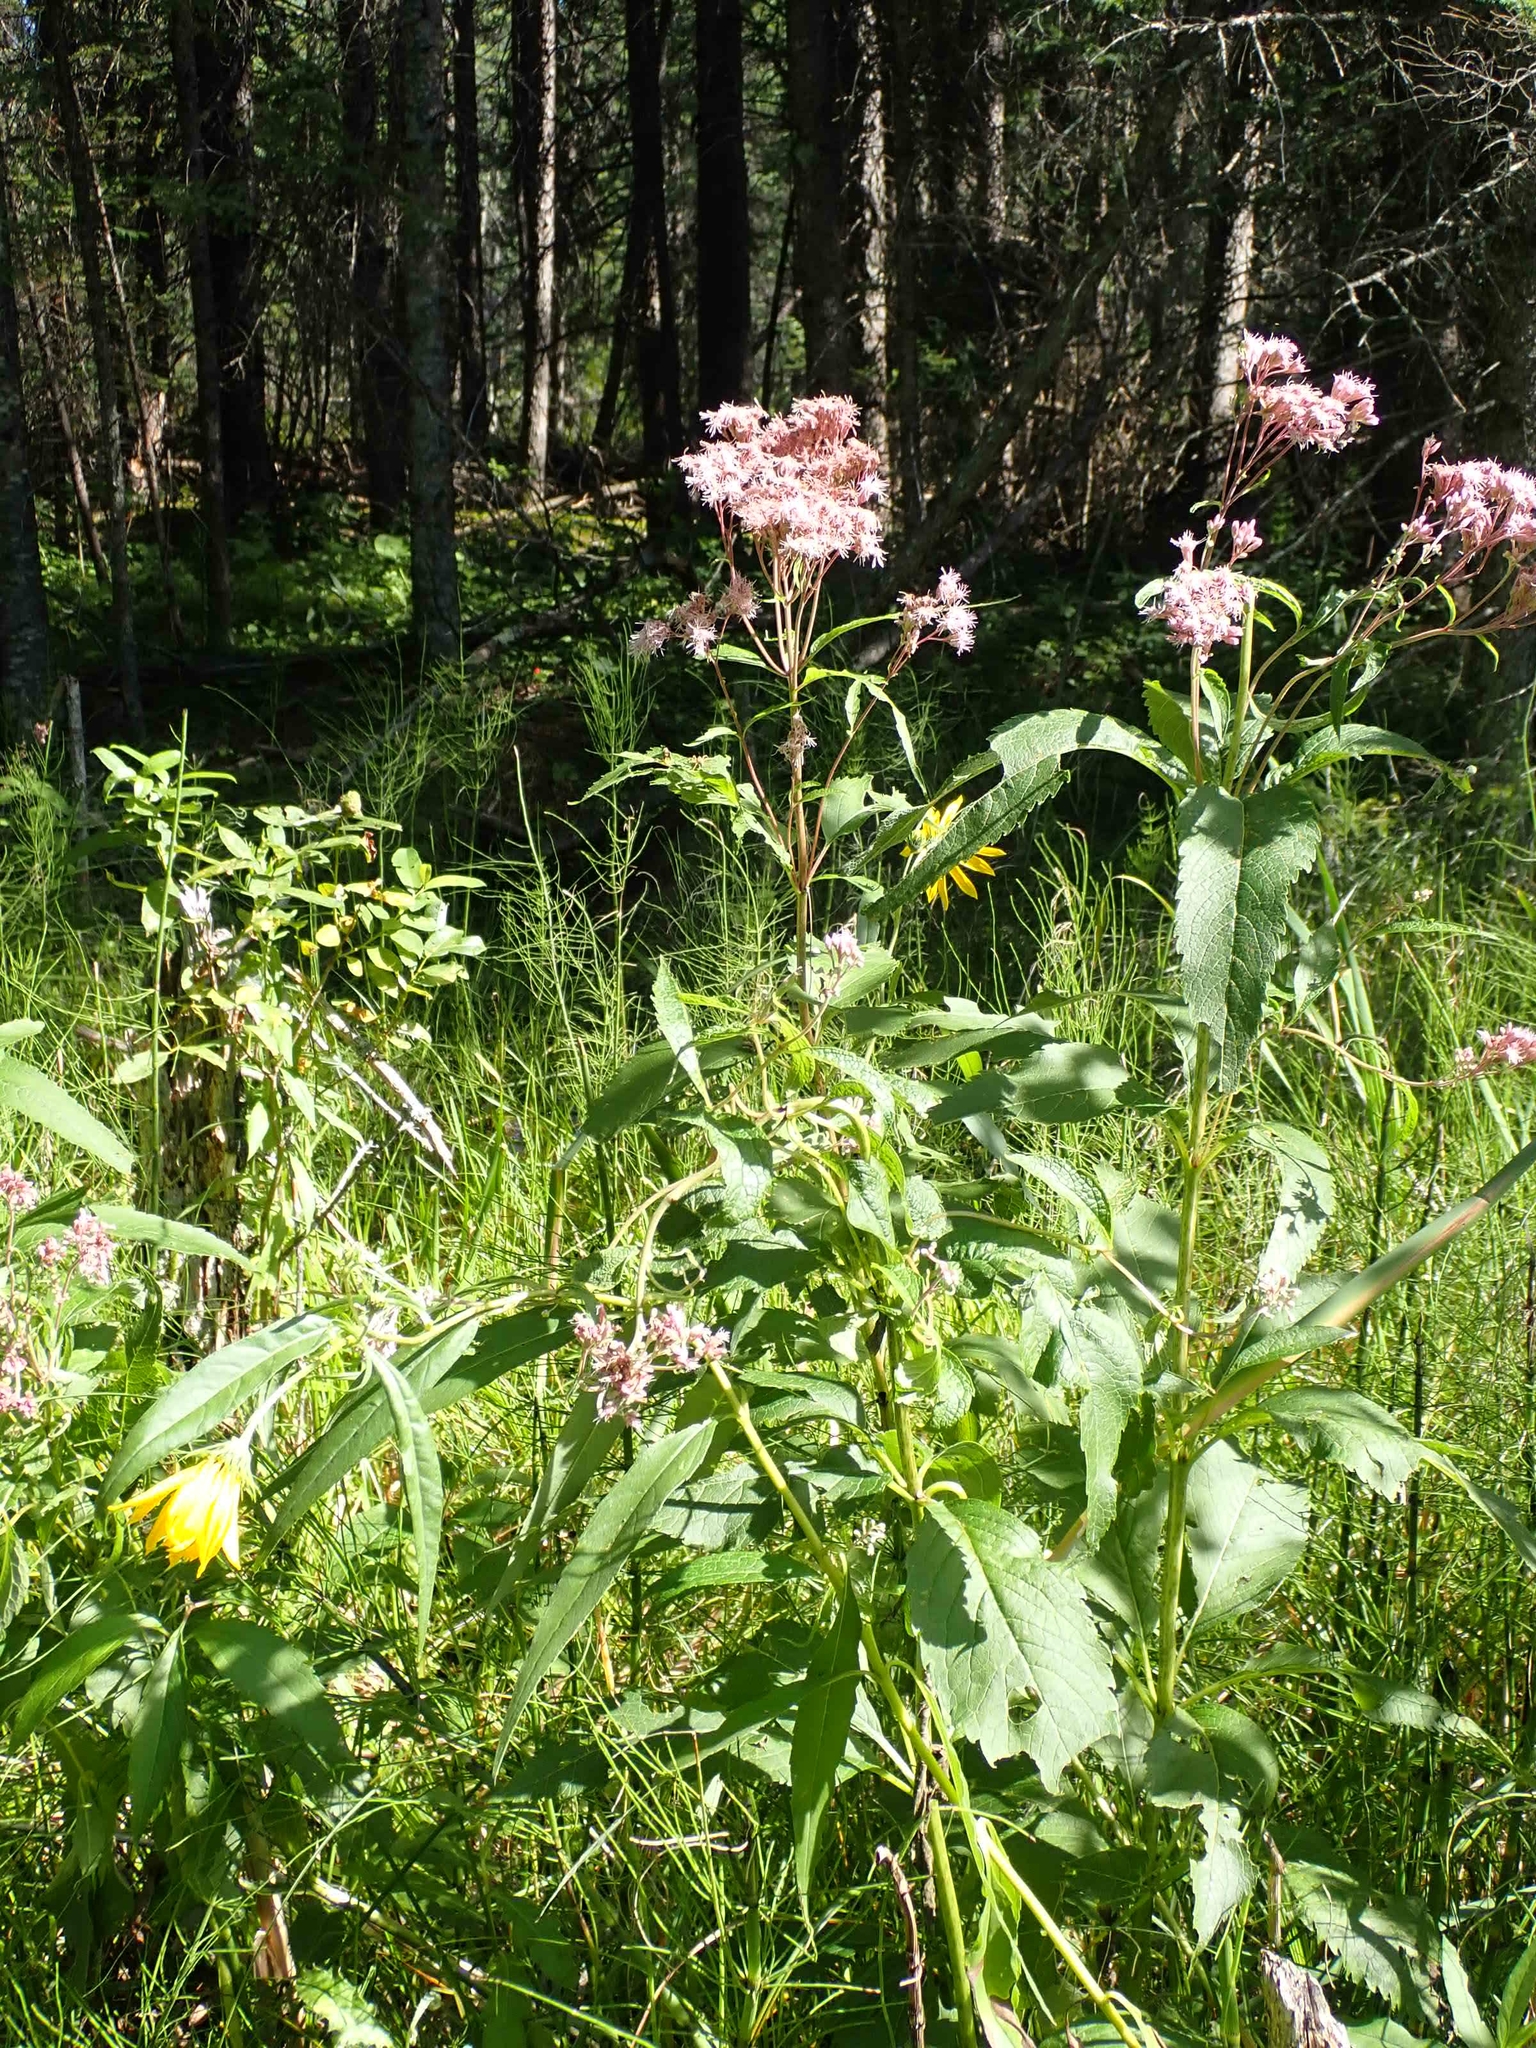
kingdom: Plantae
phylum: Tracheophyta
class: Magnoliopsida
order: Asterales
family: Asteraceae
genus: Eutrochium
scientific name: Eutrochium maculatum
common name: Spotted joe pye weed
